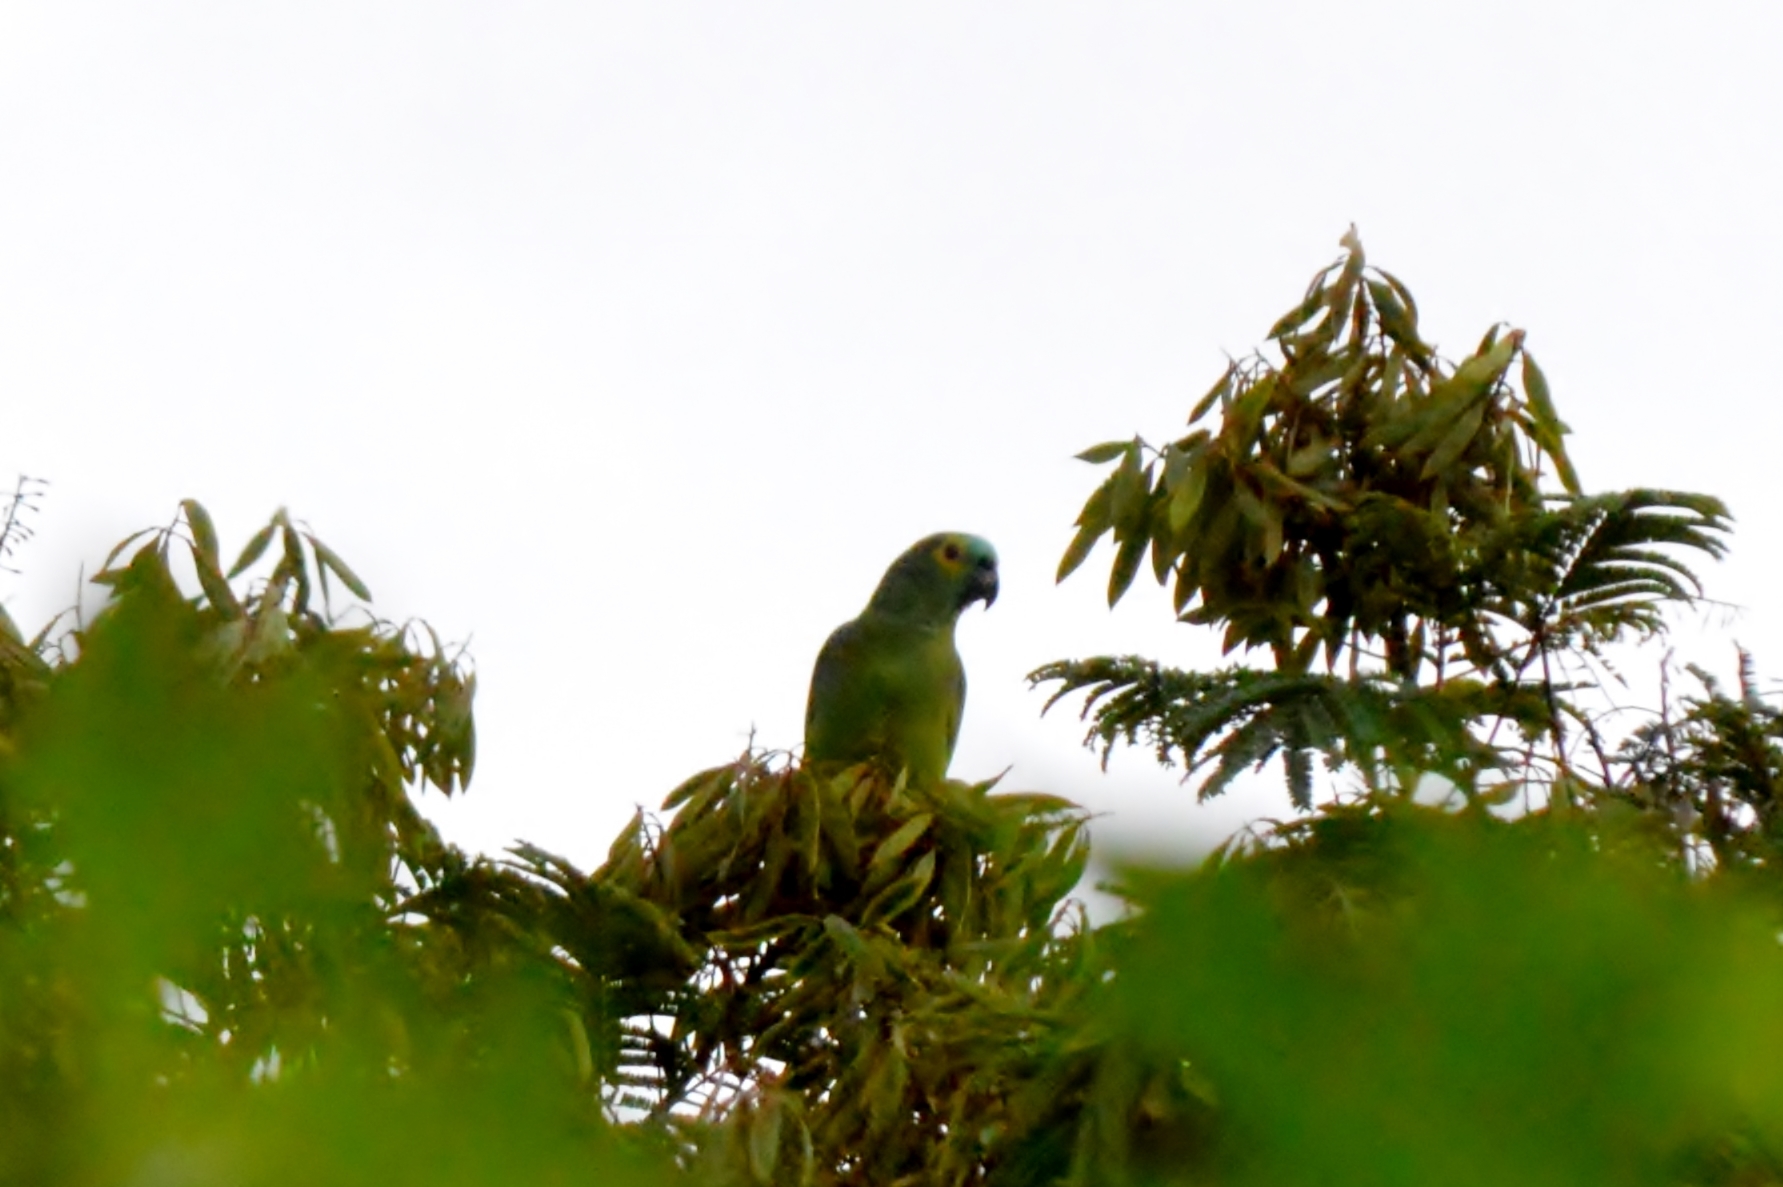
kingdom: Animalia
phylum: Chordata
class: Aves
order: Psittaciformes
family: Psittacidae
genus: Amazona
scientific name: Amazona aestiva
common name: Turquoise-fronted amazon
